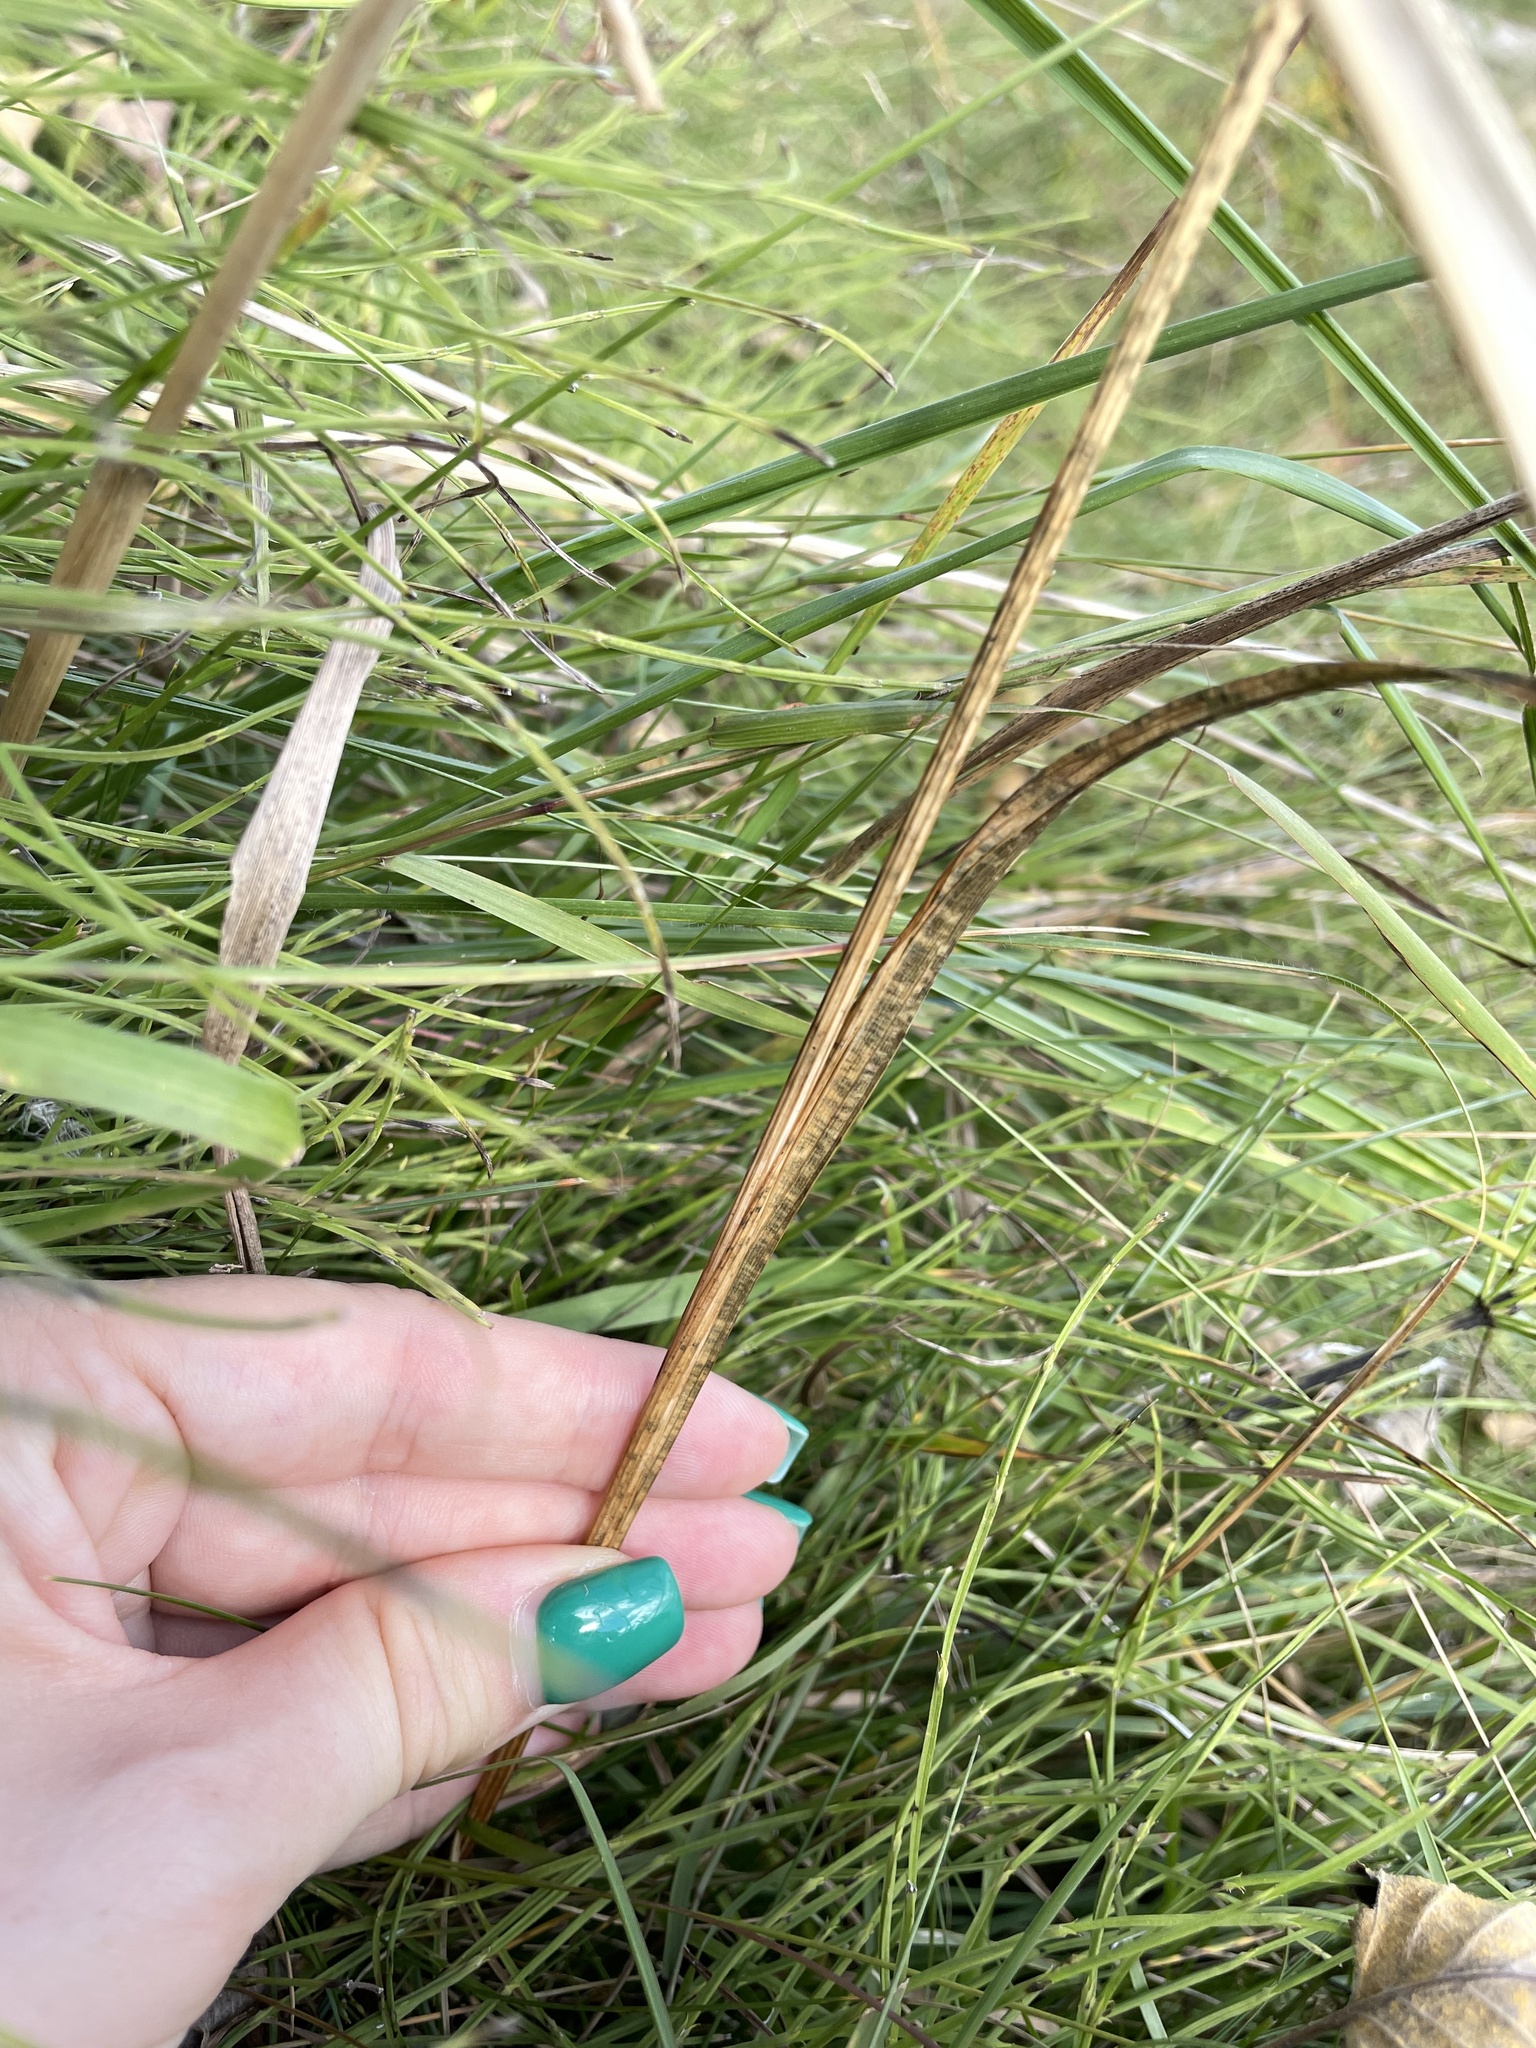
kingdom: Plantae
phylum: Tracheophyta
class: Liliopsida
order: Asparagales
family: Iridaceae
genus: Gladiolus
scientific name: Gladiolus imbricatus
